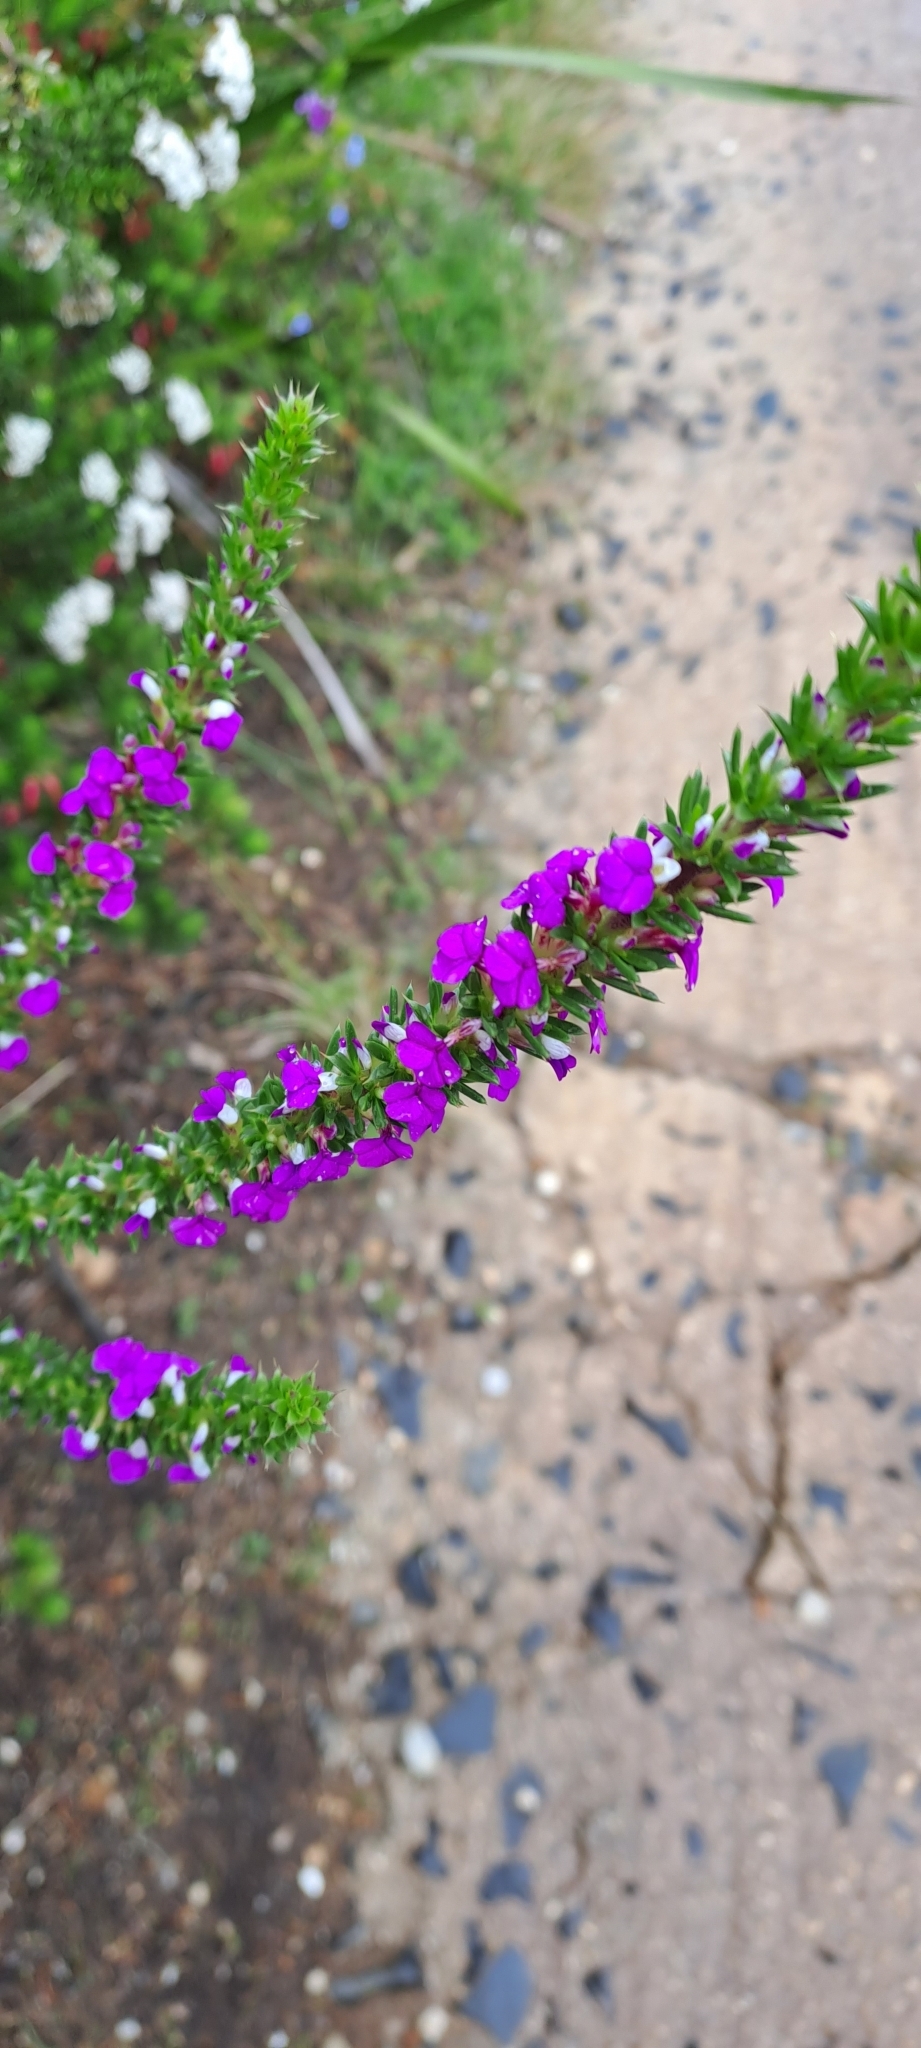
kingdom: Plantae
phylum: Tracheophyta
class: Magnoliopsida
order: Fabales
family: Polygalaceae
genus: Muraltia
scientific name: Muraltia heisteria
